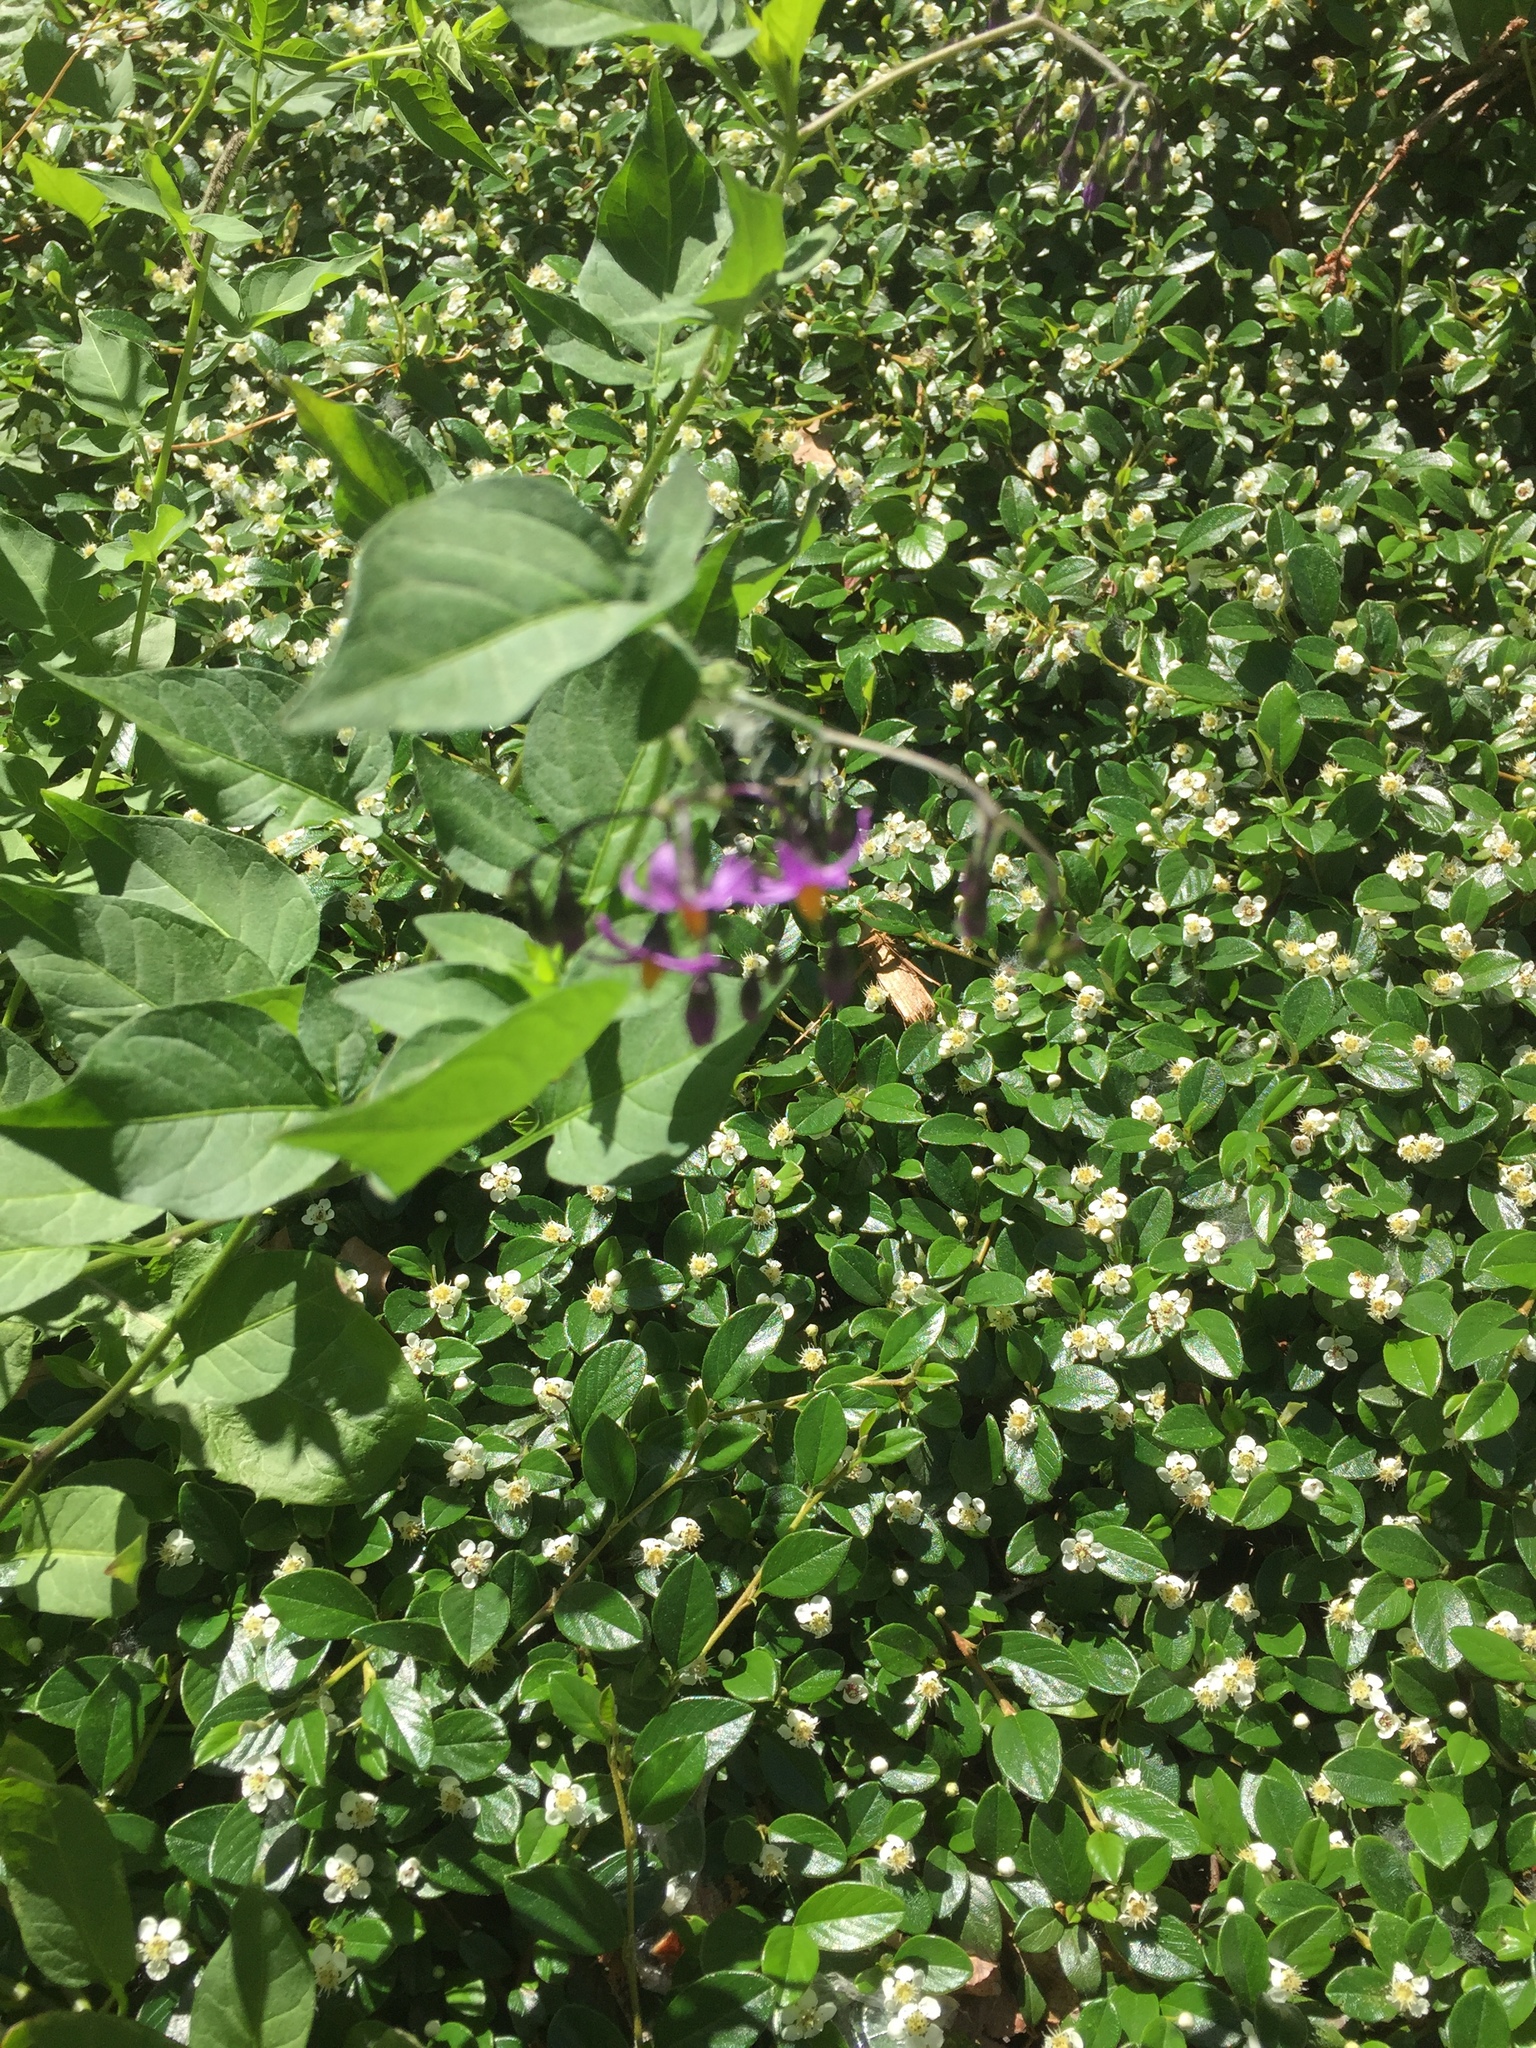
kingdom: Plantae
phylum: Tracheophyta
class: Magnoliopsida
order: Solanales
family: Solanaceae
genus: Solanum
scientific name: Solanum dulcamara
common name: Climbing nightshade
